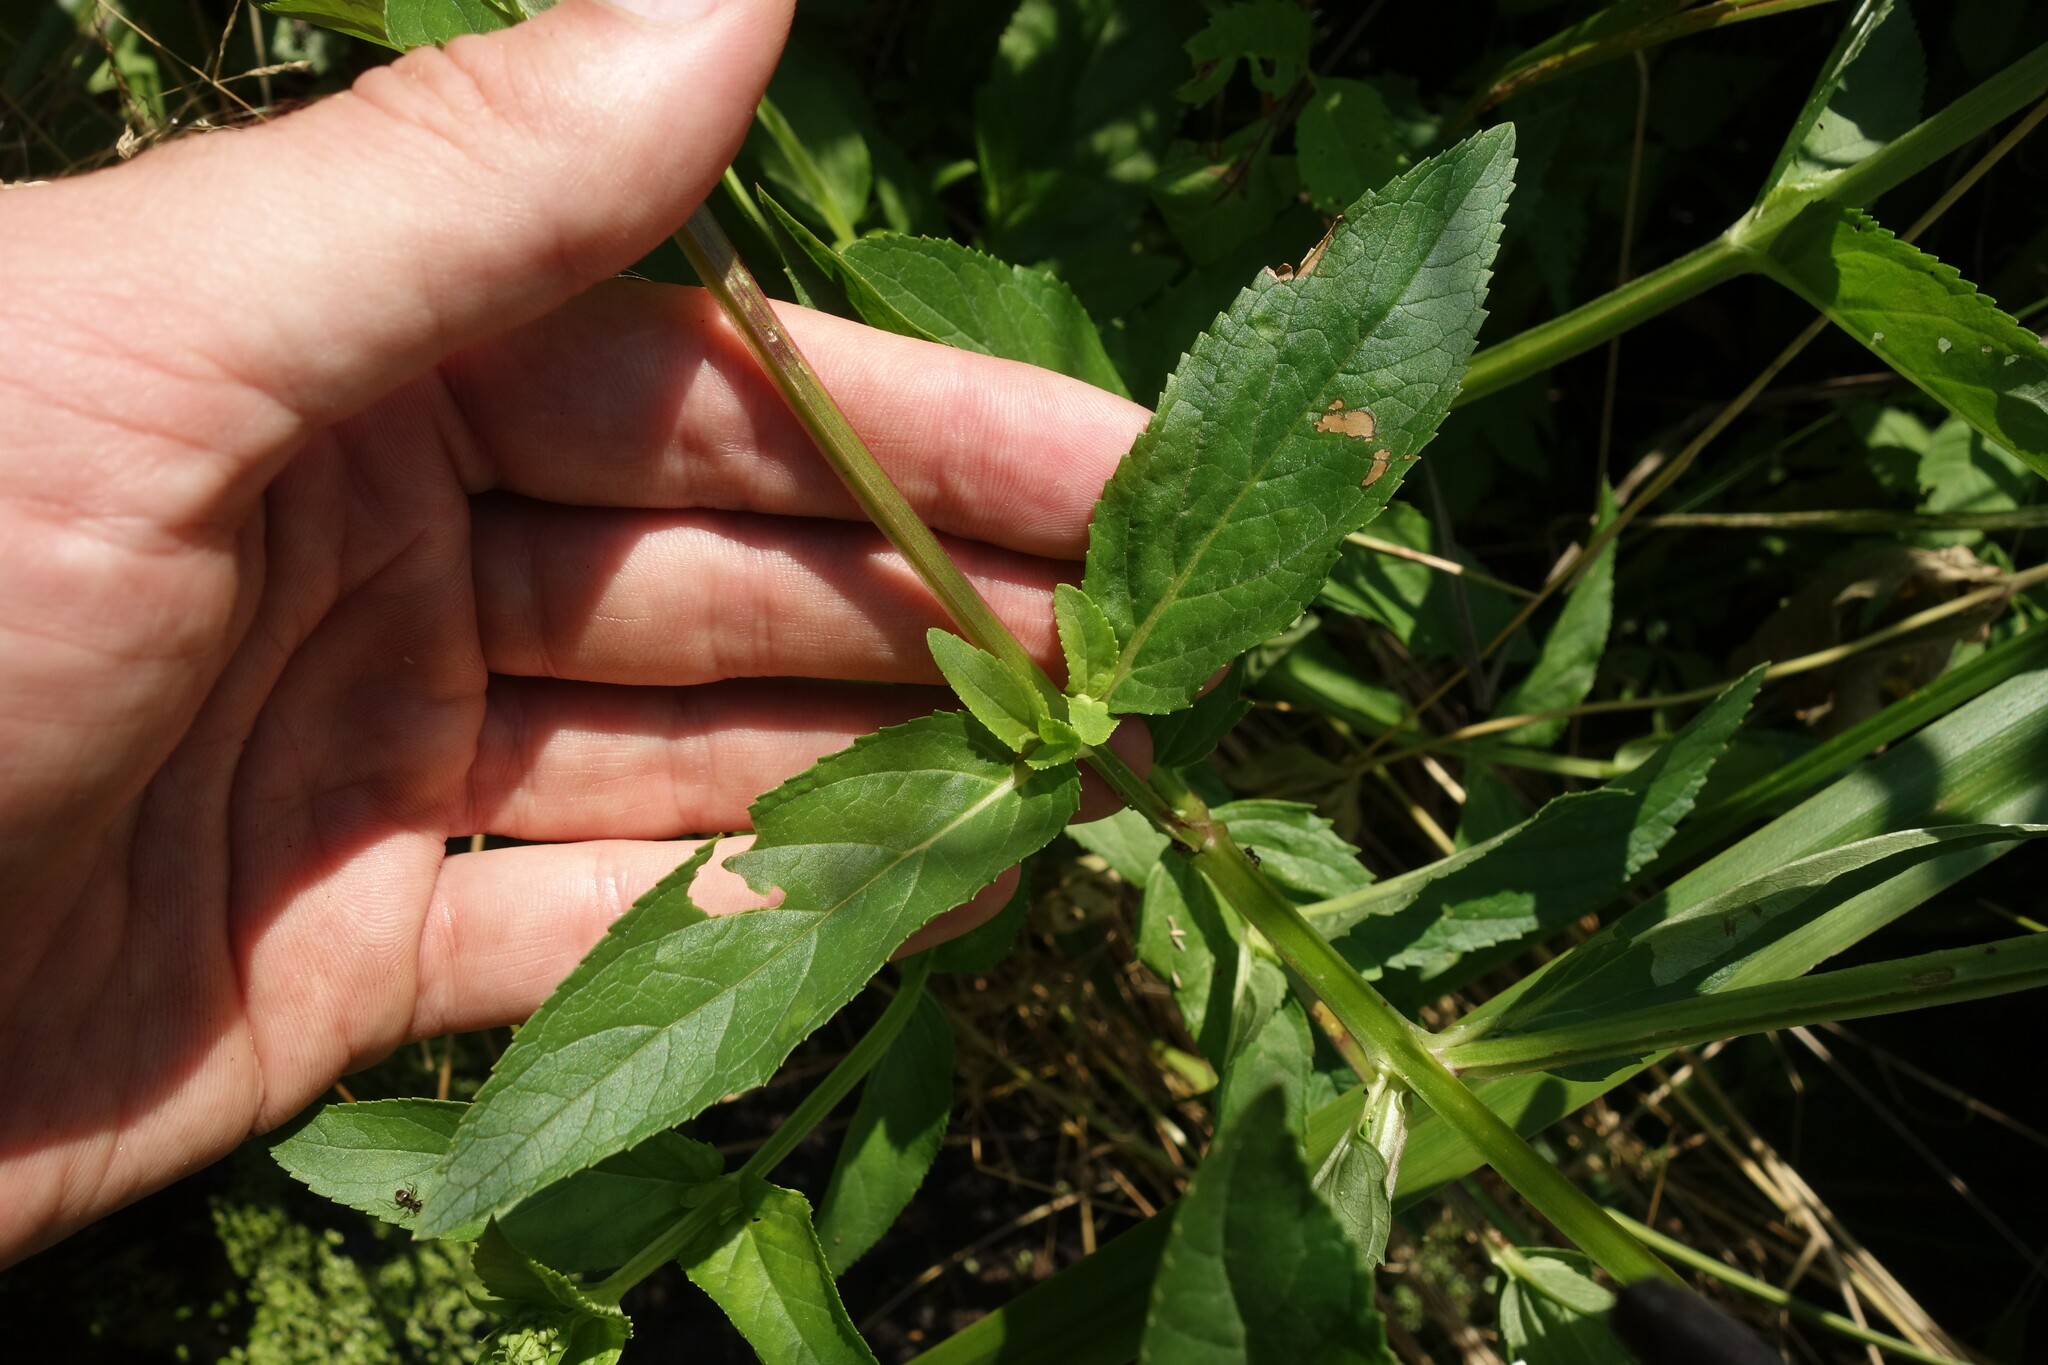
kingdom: Plantae
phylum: Tracheophyta
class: Magnoliopsida
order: Lamiales
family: Scrophulariaceae
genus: Scrophularia
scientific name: Scrophularia umbrosa
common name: Green figwort
